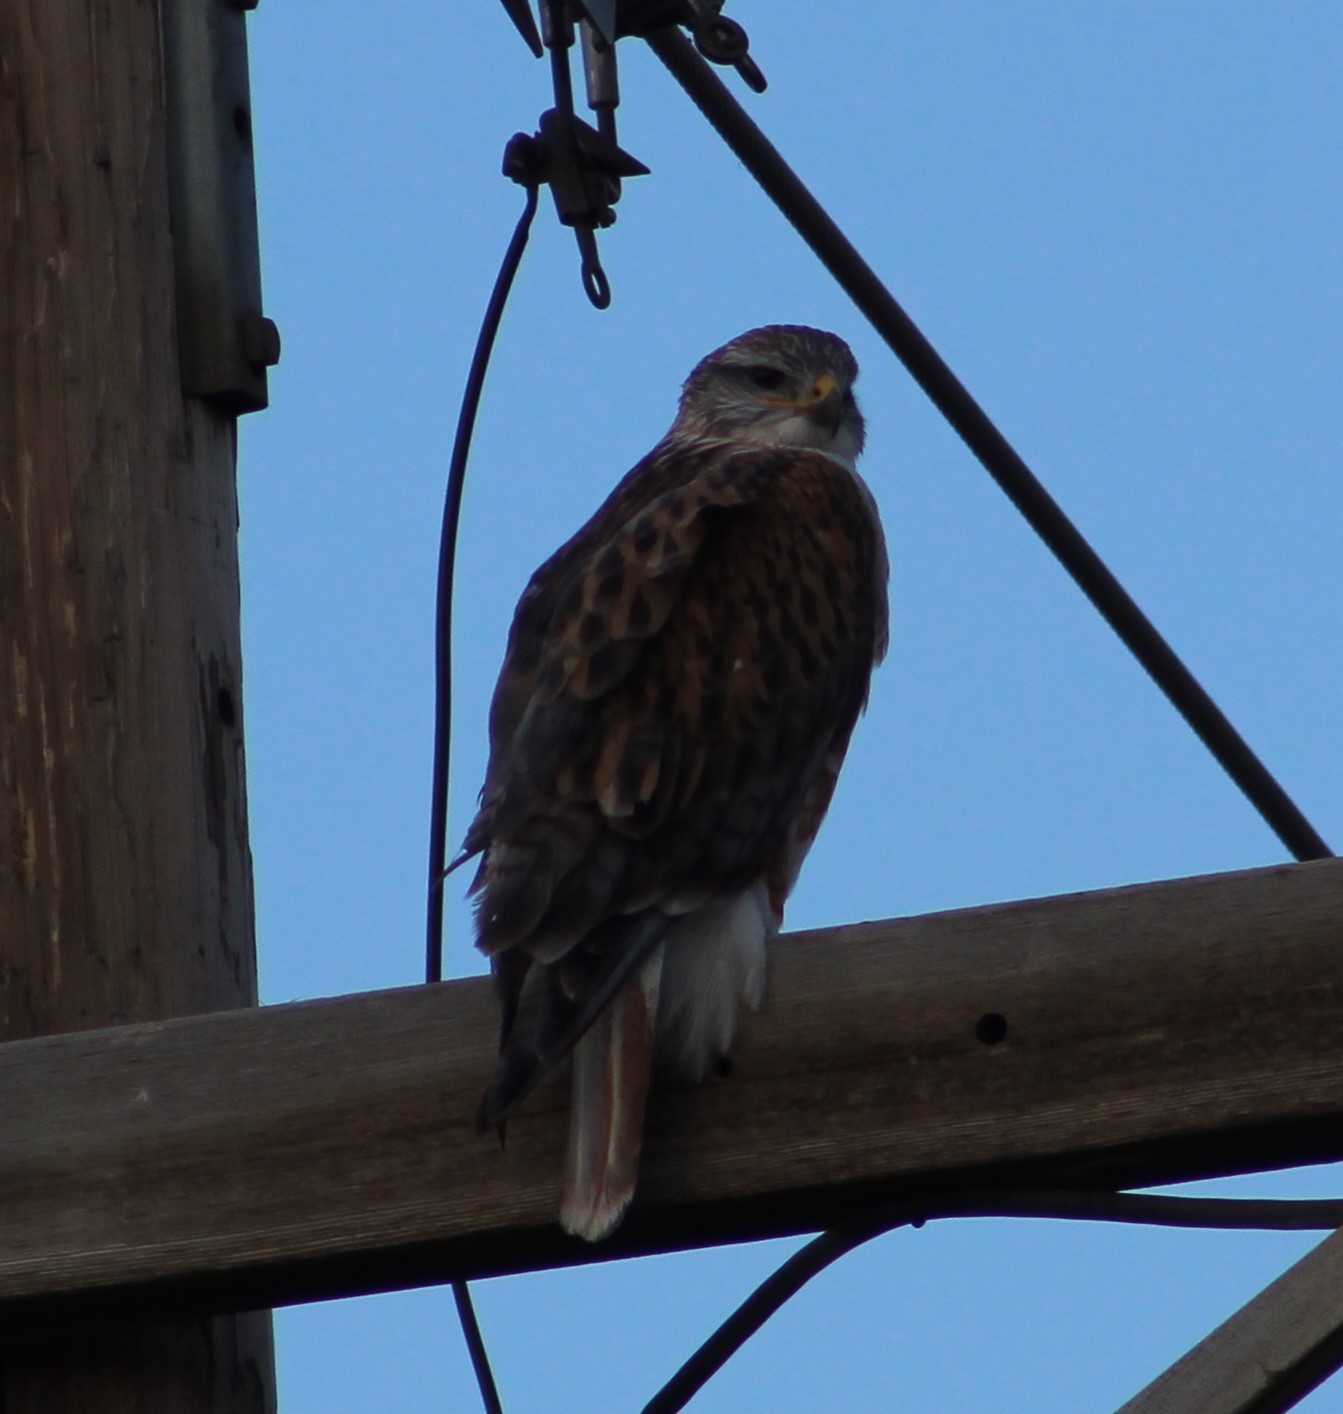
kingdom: Animalia
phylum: Chordata
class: Aves
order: Accipitriformes
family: Accipitridae
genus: Buteo
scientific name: Buteo regalis
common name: Ferruginous hawk
